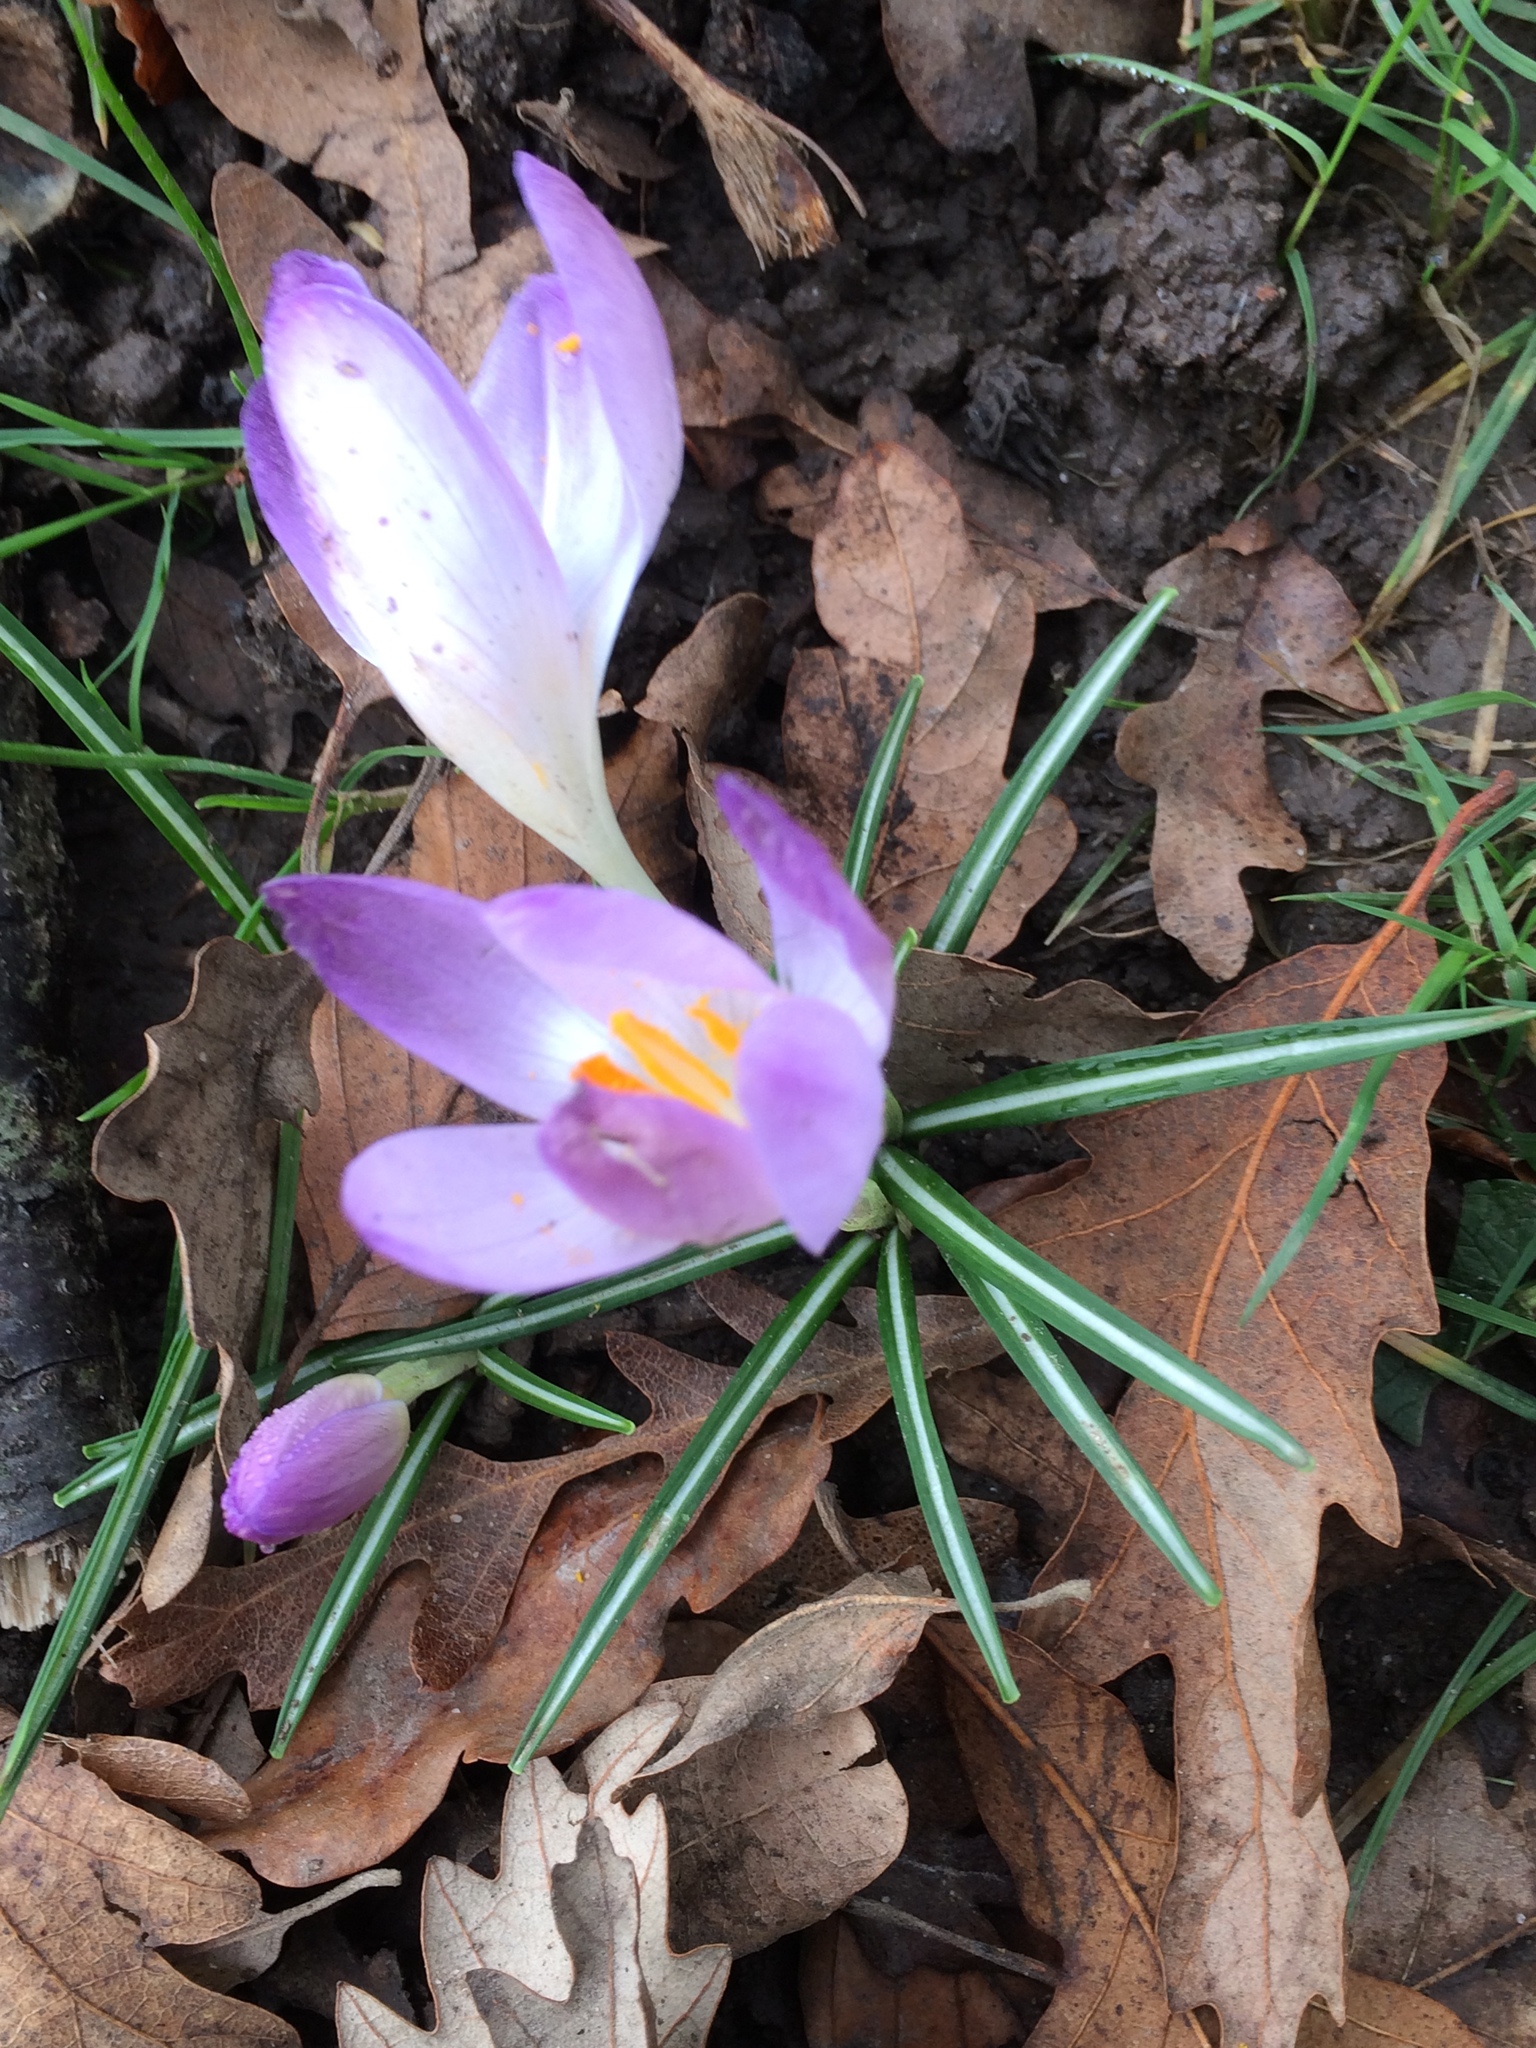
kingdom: Plantae
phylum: Tracheophyta
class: Liliopsida
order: Asparagales
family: Iridaceae
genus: Crocus
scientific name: Crocus tommasinianus
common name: Early crocus
